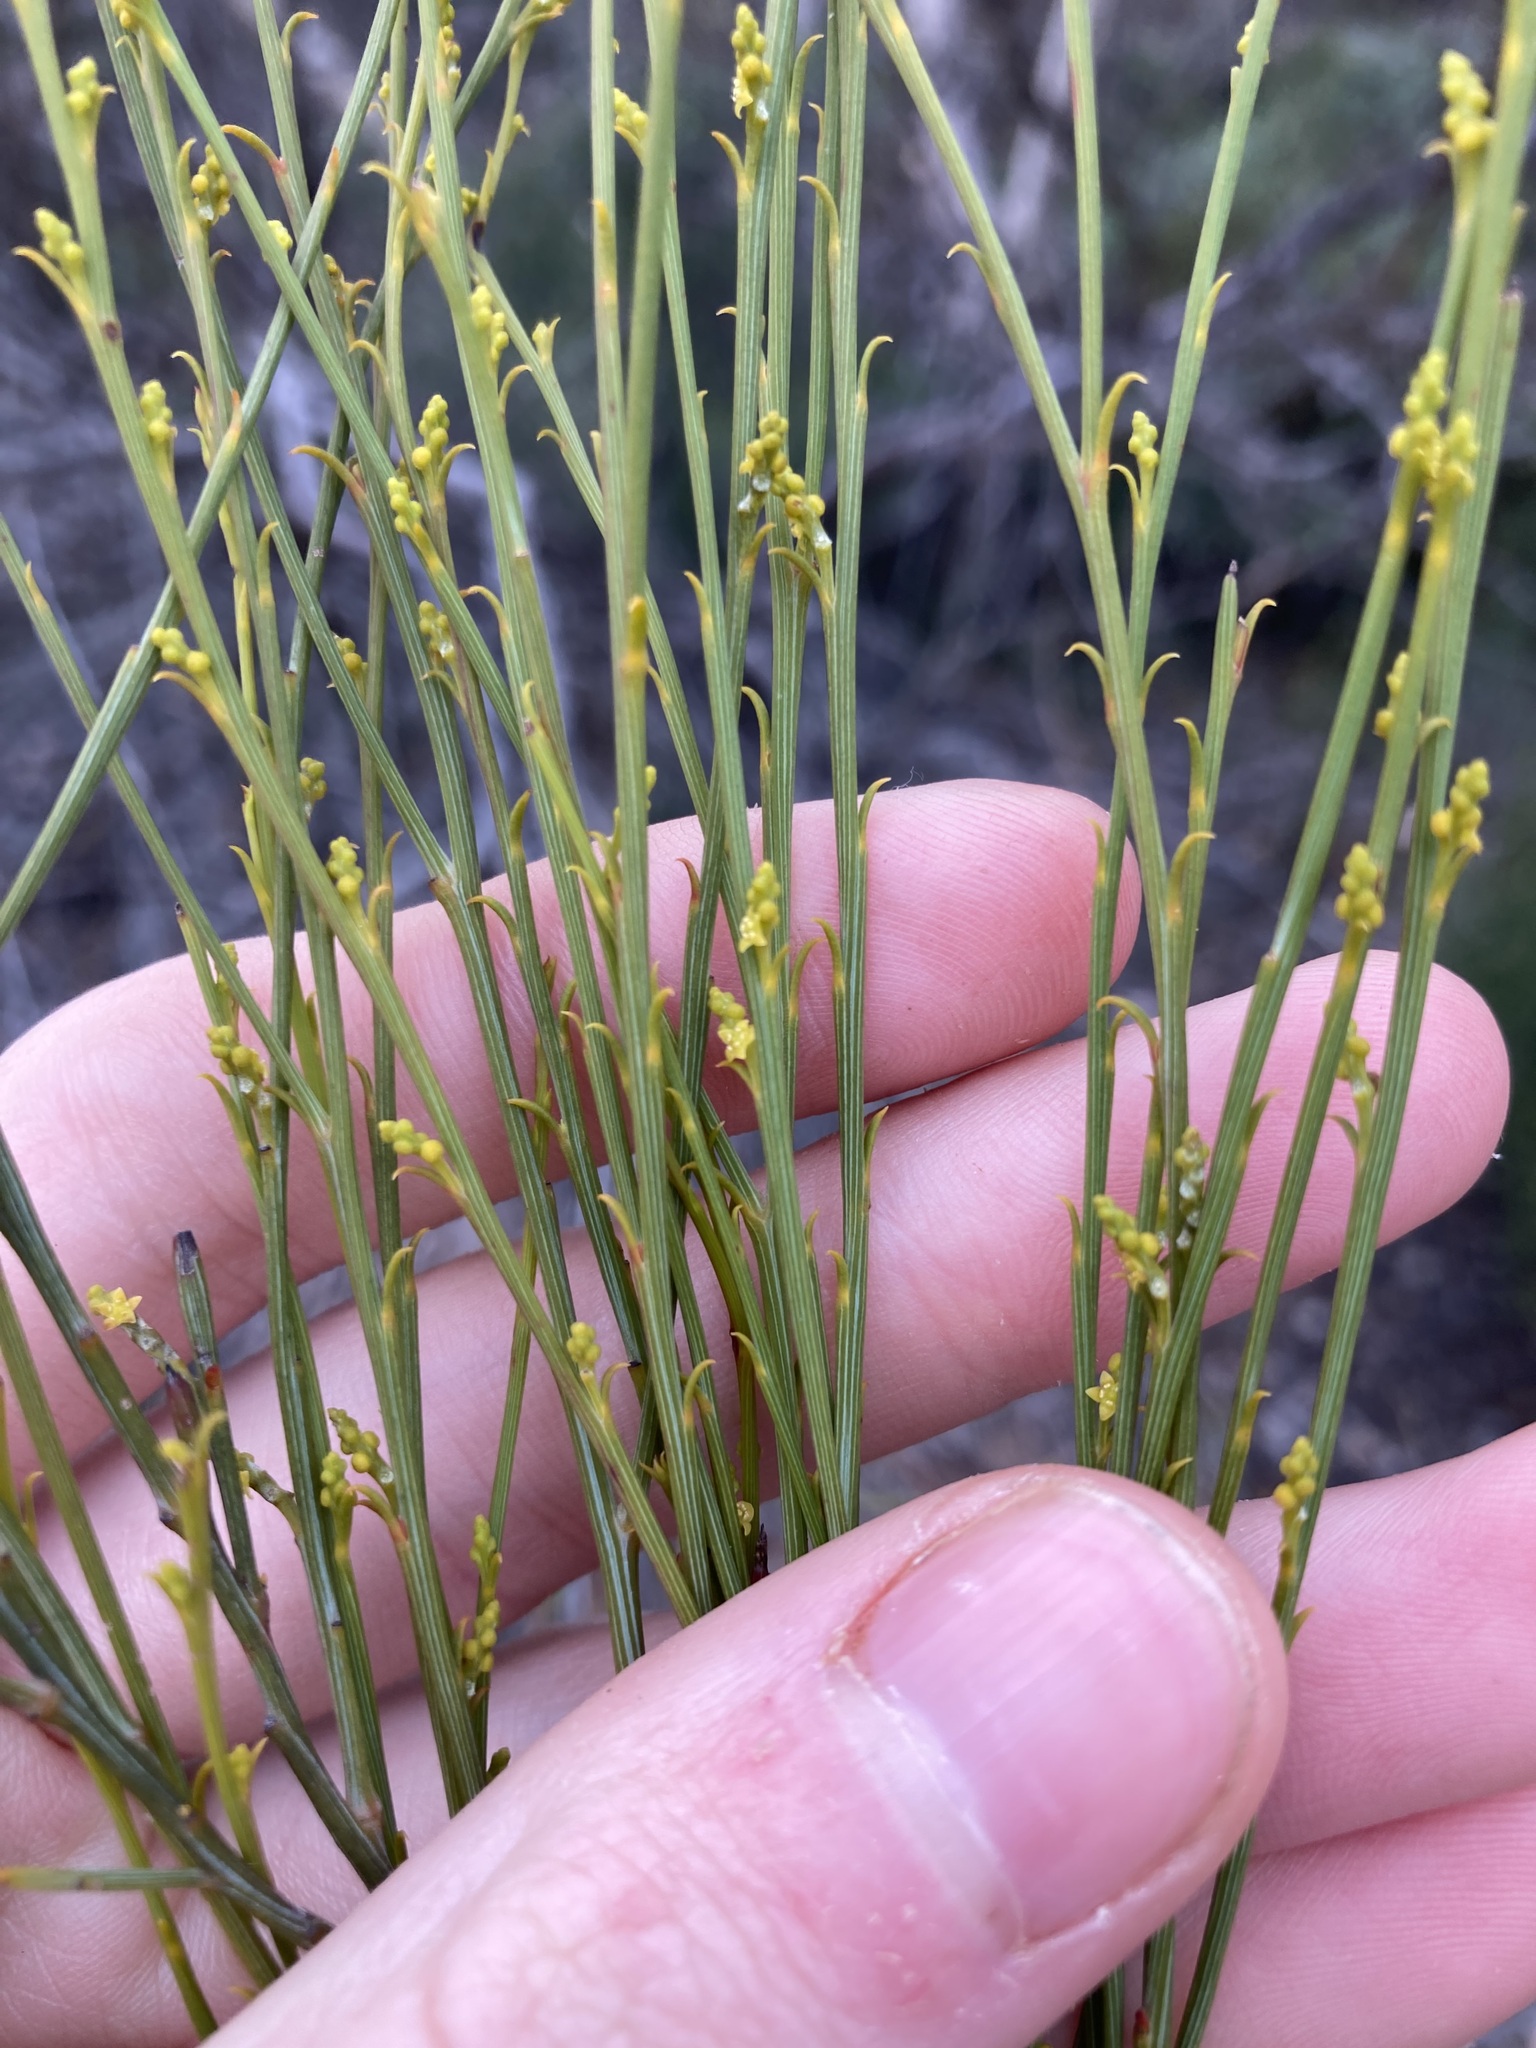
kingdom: Plantae
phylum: Tracheophyta
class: Magnoliopsida
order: Santalales
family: Santalaceae
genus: Exocarpos
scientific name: Exocarpos sparteus
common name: Broom ballart
